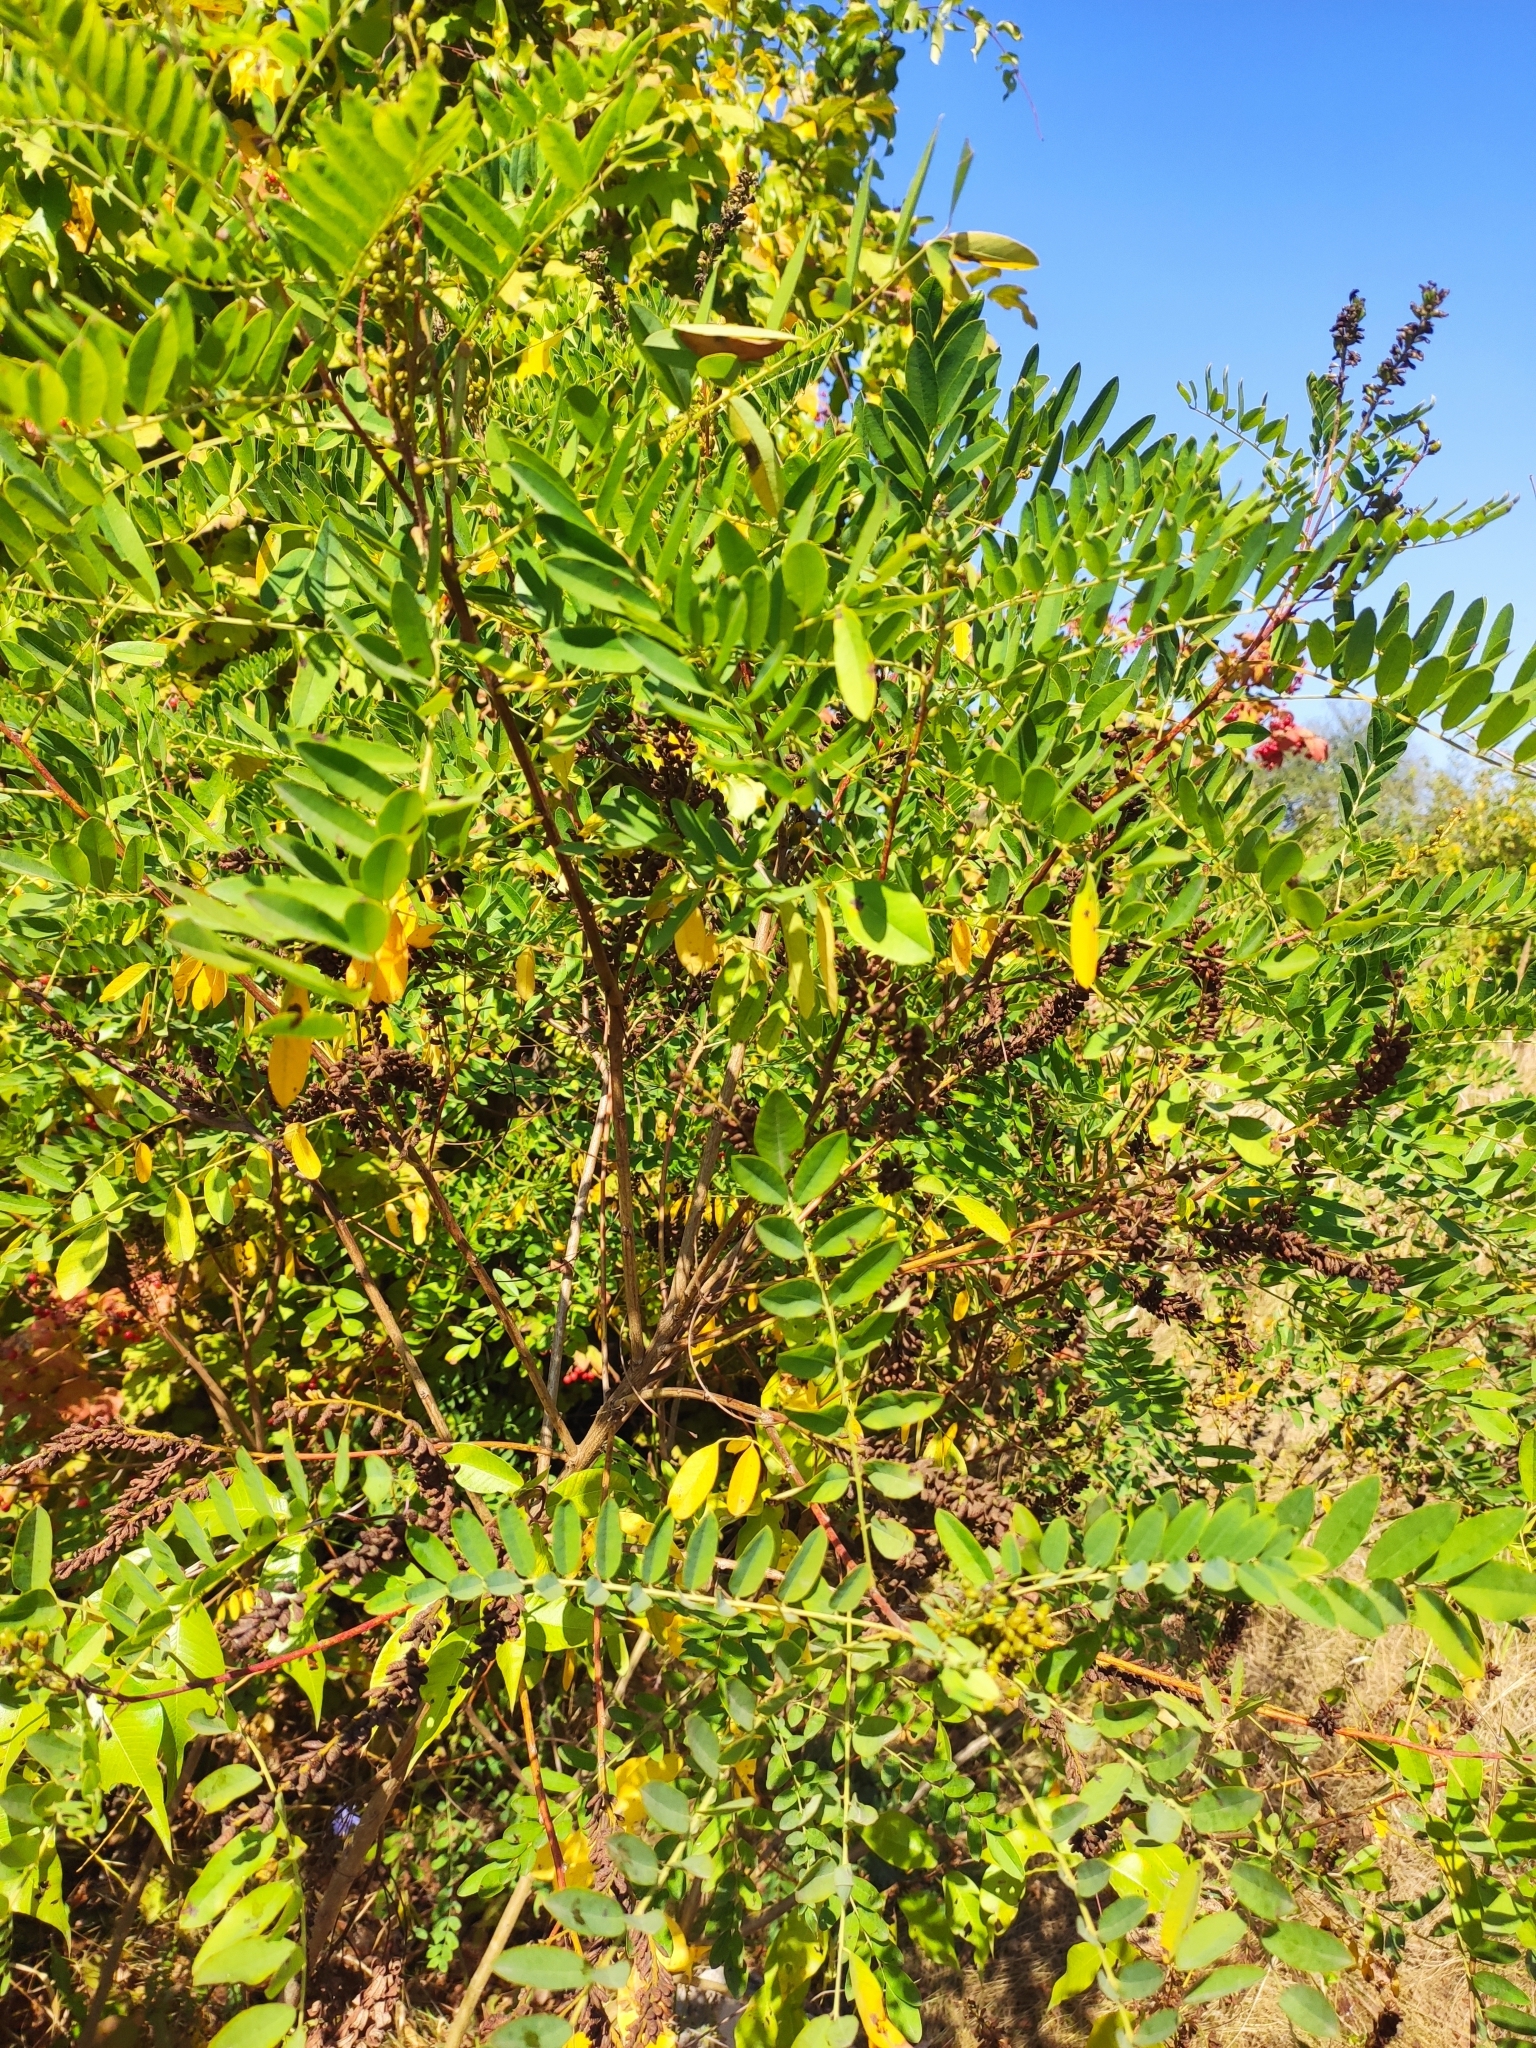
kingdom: Plantae
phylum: Tracheophyta
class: Magnoliopsida
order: Fabales
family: Fabaceae
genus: Amorpha
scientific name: Amorpha fruticosa
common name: False indigo
